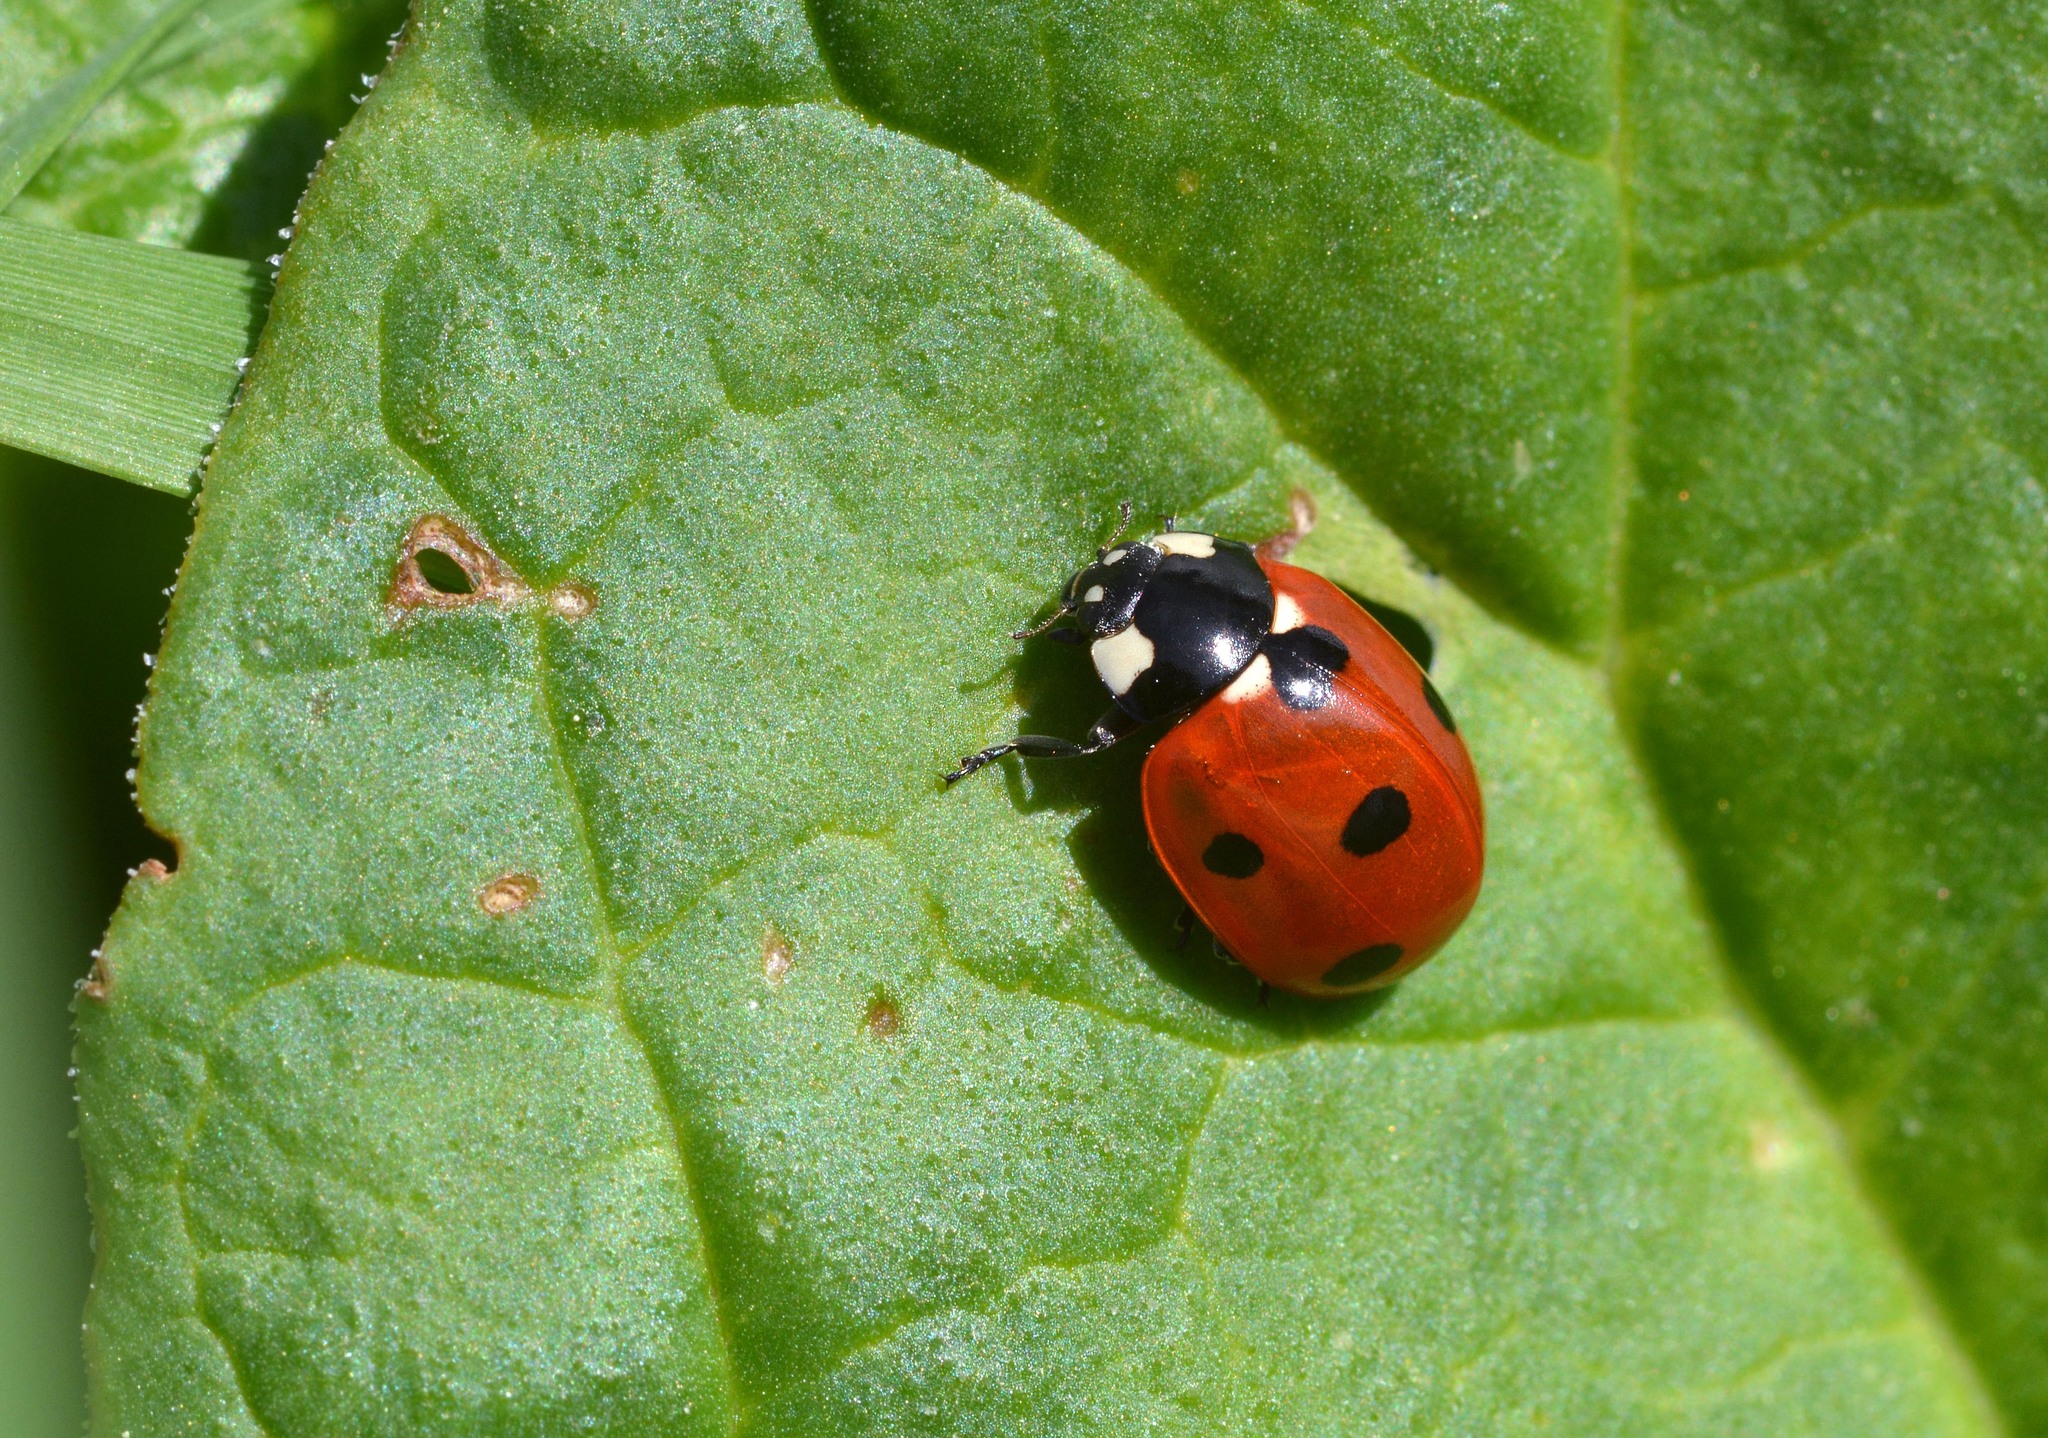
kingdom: Animalia
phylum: Arthropoda
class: Insecta
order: Coleoptera
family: Coccinellidae
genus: Coccinella
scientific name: Coccinella septempunctata
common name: Sevenspotted lady beetle
